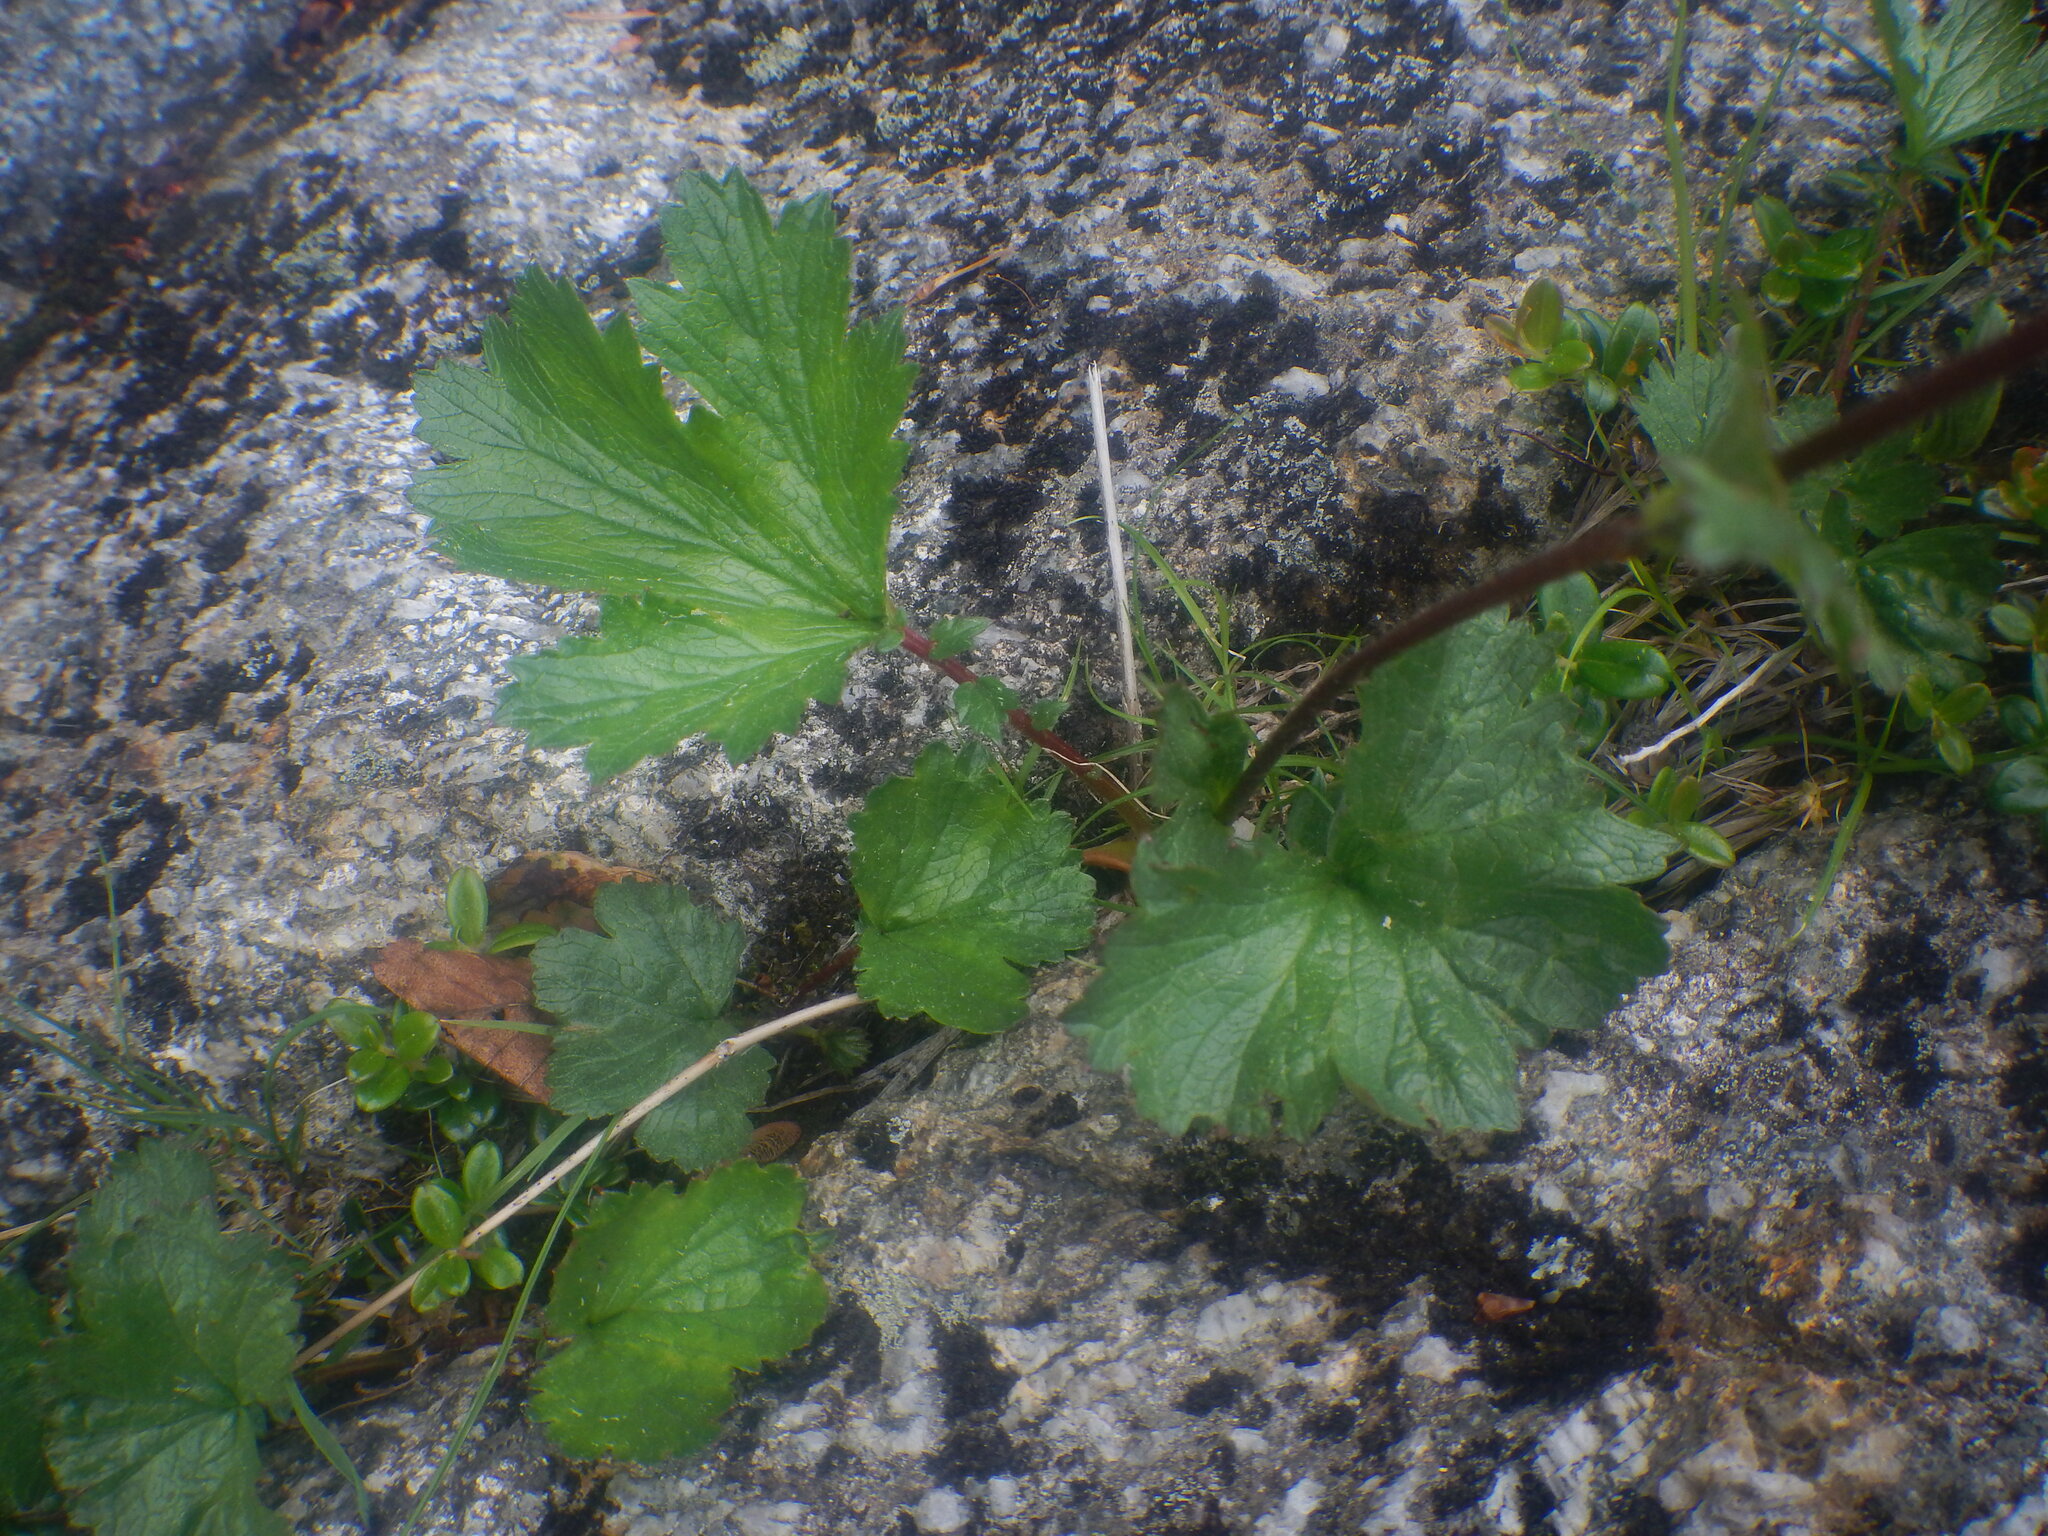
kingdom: Plantae
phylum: Tracheophyta
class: Magnoliopsida
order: Rosales
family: Rosaceae
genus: Geum
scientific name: Geum peckii
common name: Eastern mountain avens
